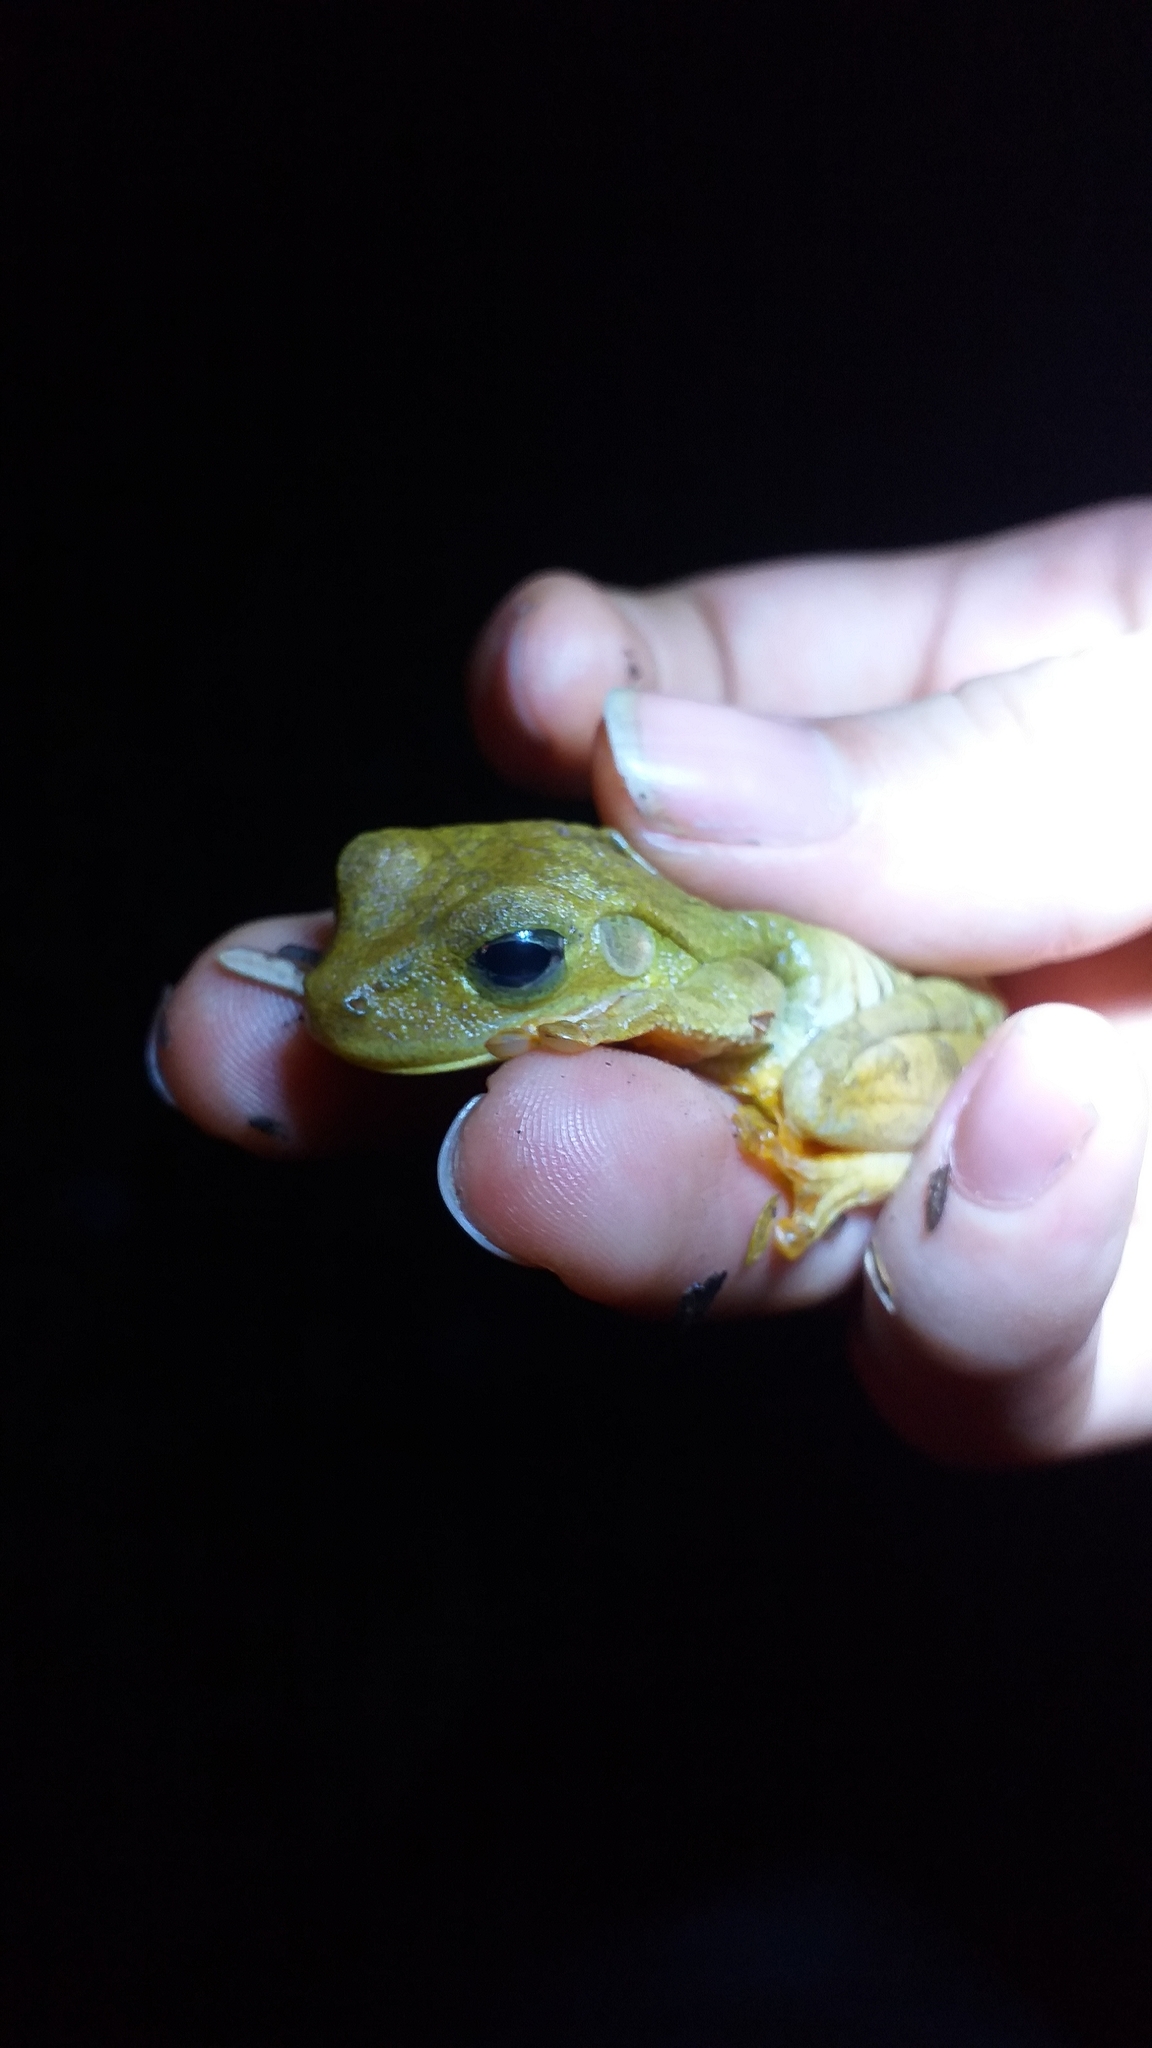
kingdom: Animalia
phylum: Chordata
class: Amphibia
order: Anura
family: Hylidae
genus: Boana
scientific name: Boana platanera
